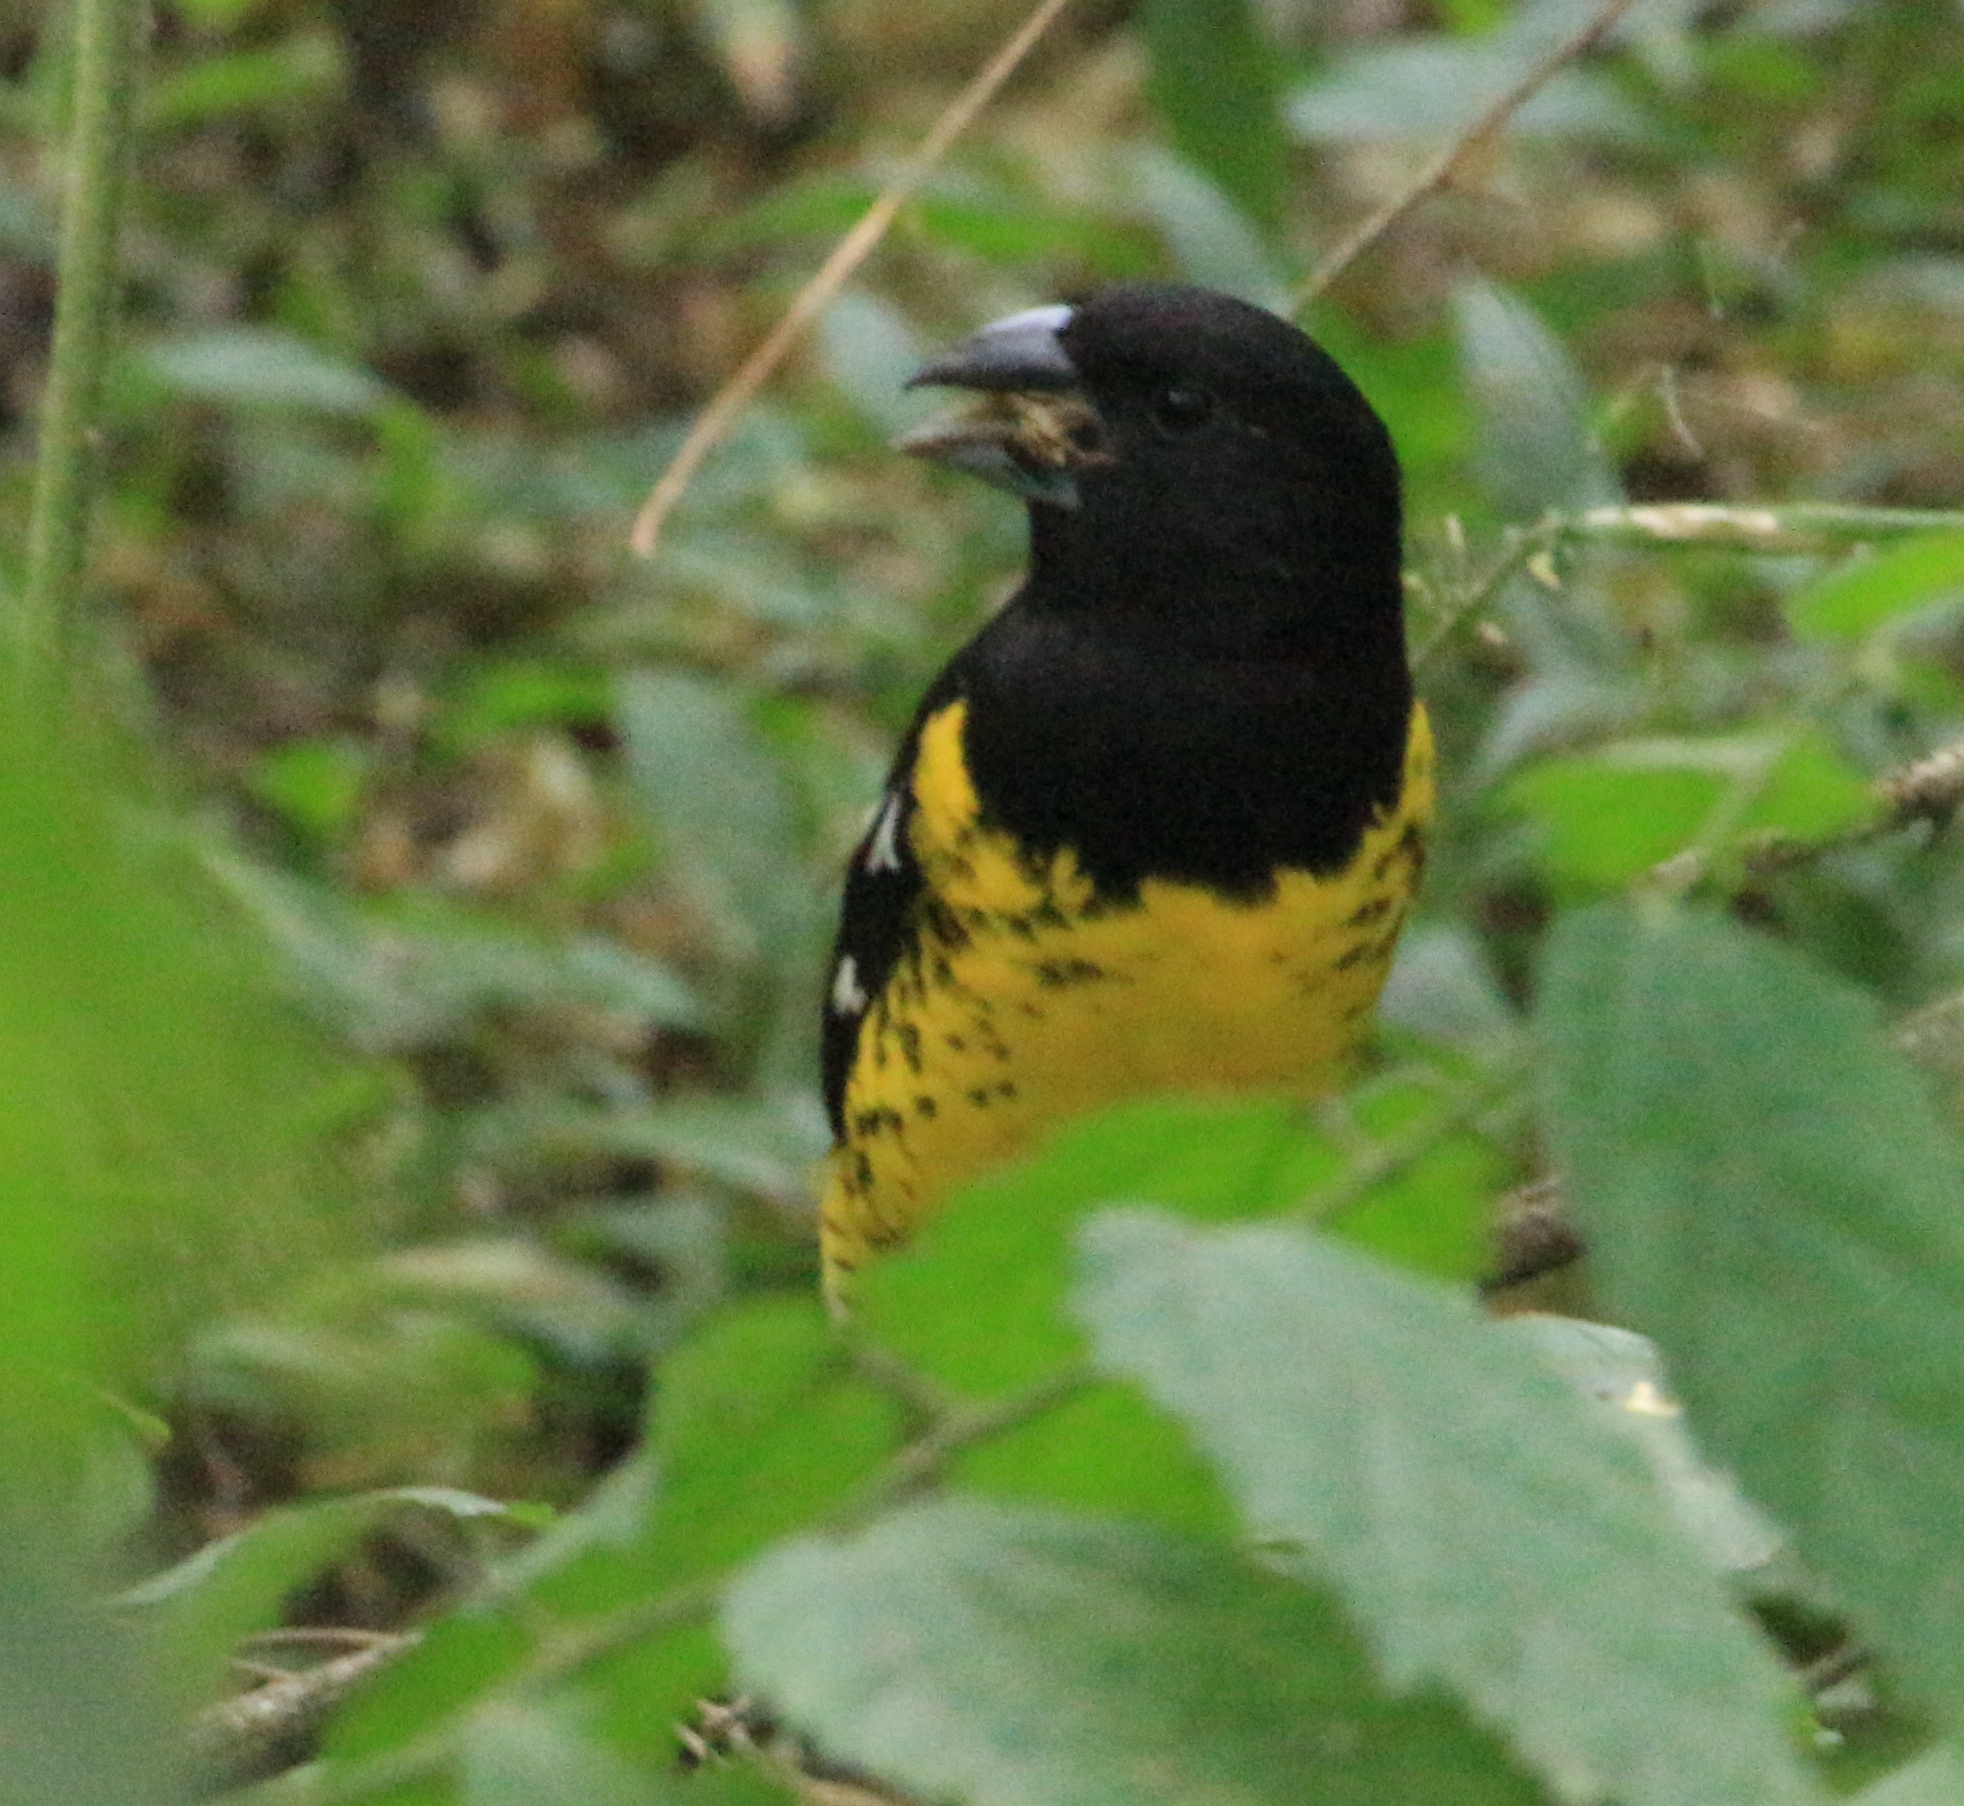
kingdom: Animalia
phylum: Chordata
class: Aves
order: Passeriformes
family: Cardinalidae
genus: Pheucticus
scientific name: Pheucticus aureoventris
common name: Black-backed grosbeak
